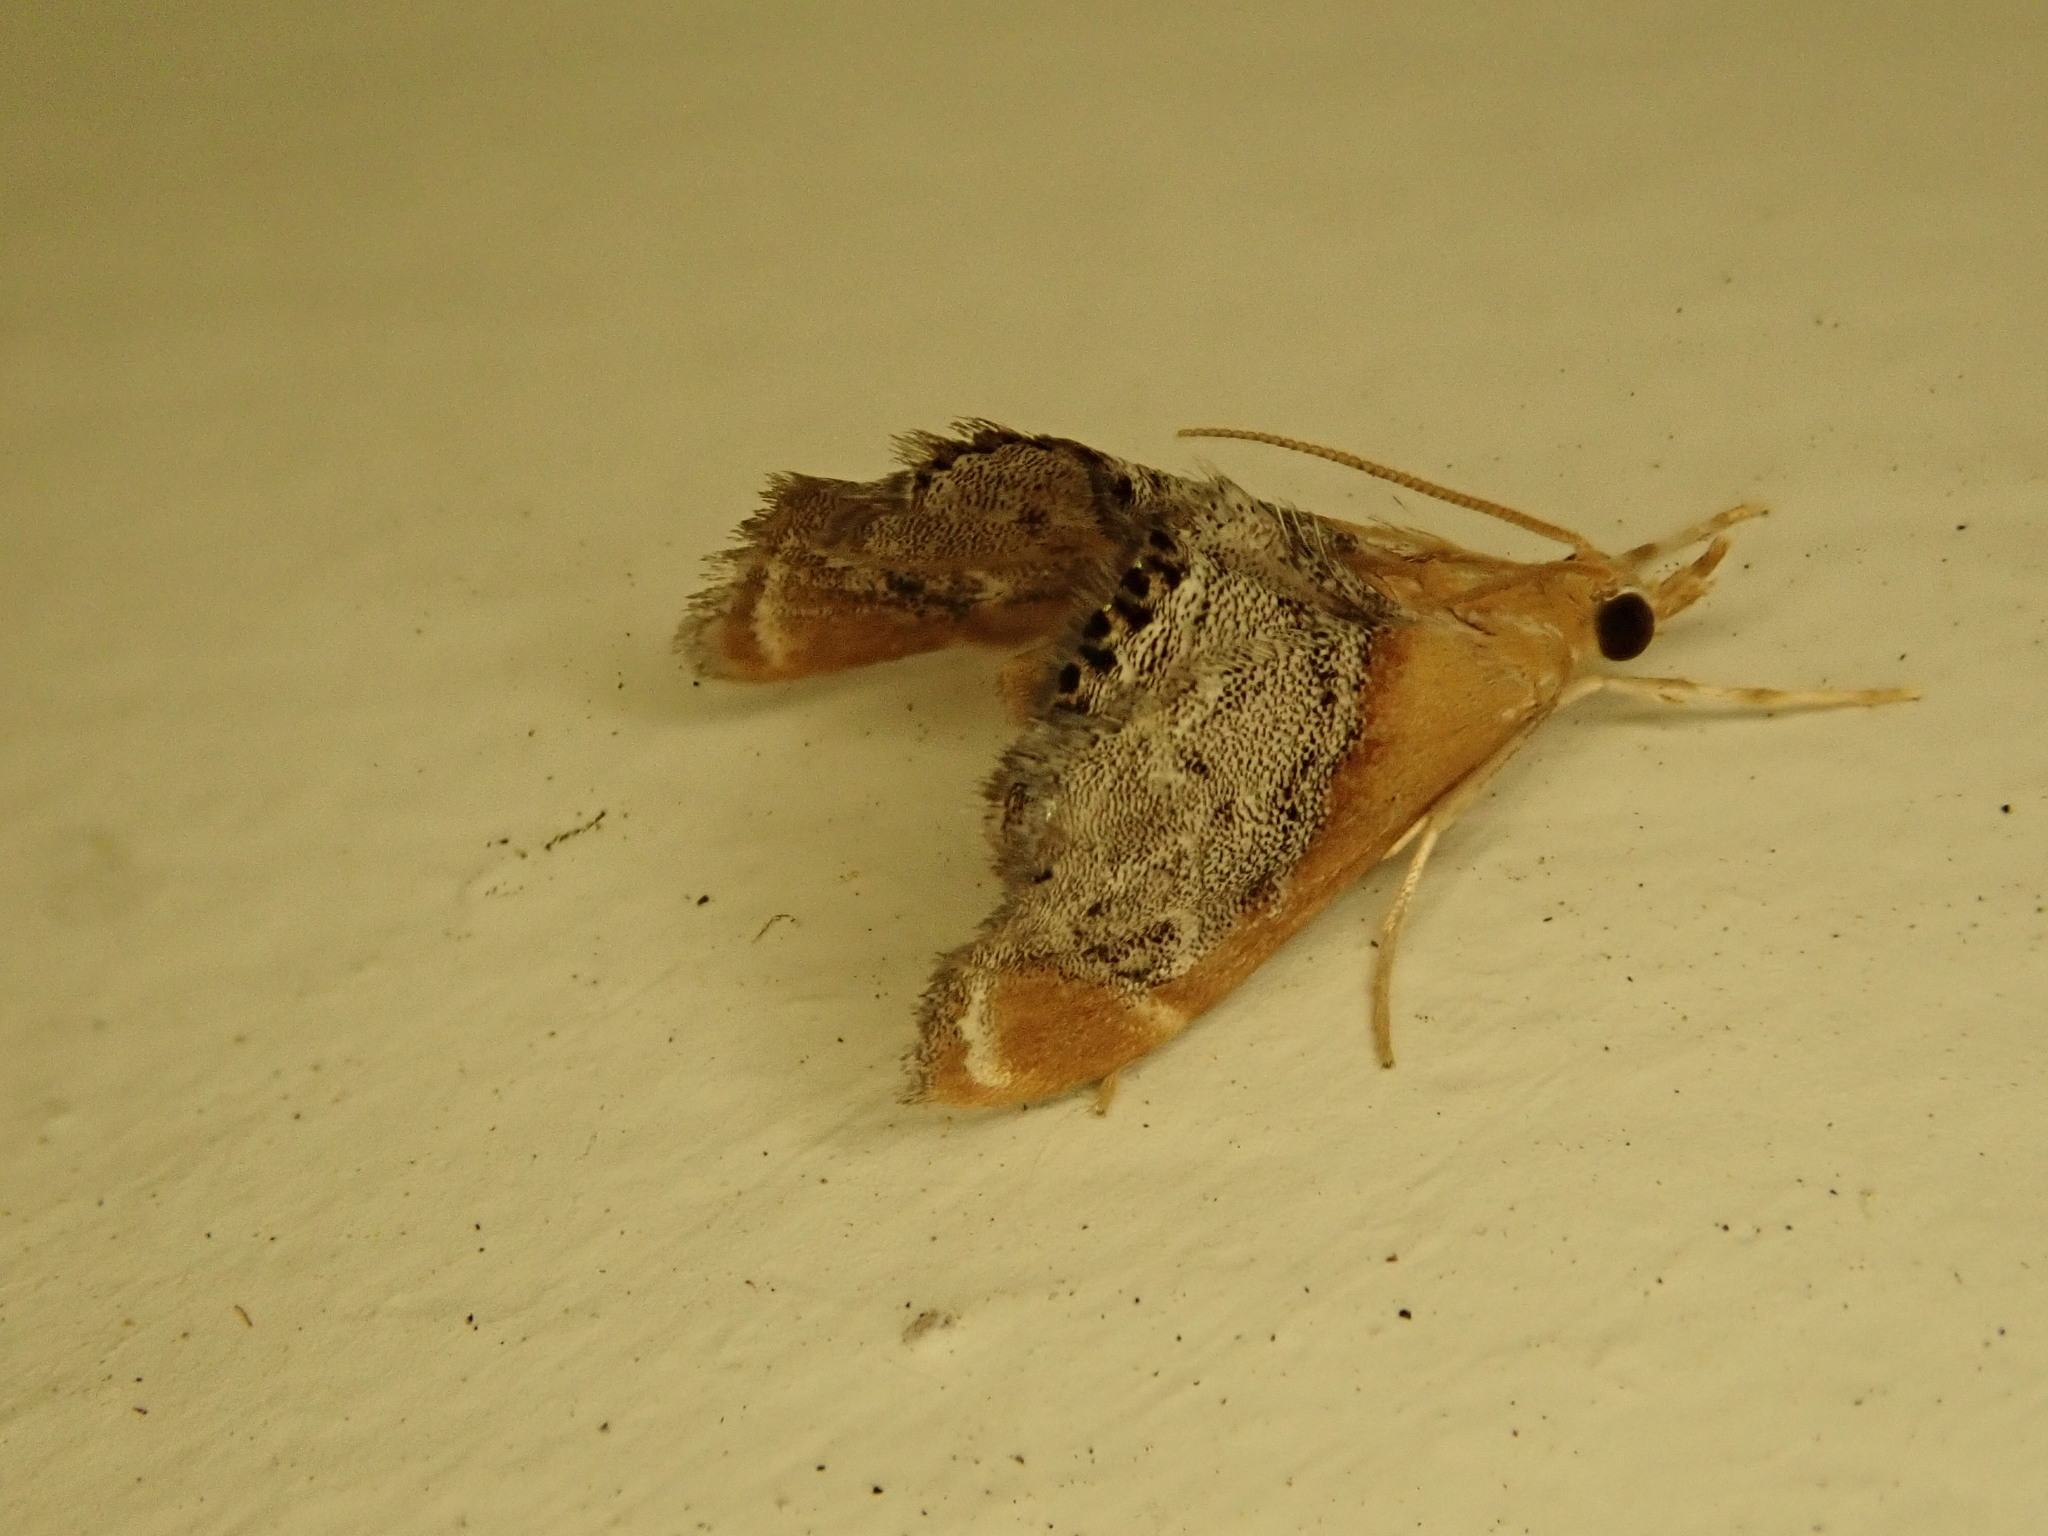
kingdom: Animalia
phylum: Arthropoda
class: Insecta
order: Lepidoptera
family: Crambidae
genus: Chalcoela
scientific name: Chalcoela iphitalis
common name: Sooty-winged chalcoela moth
